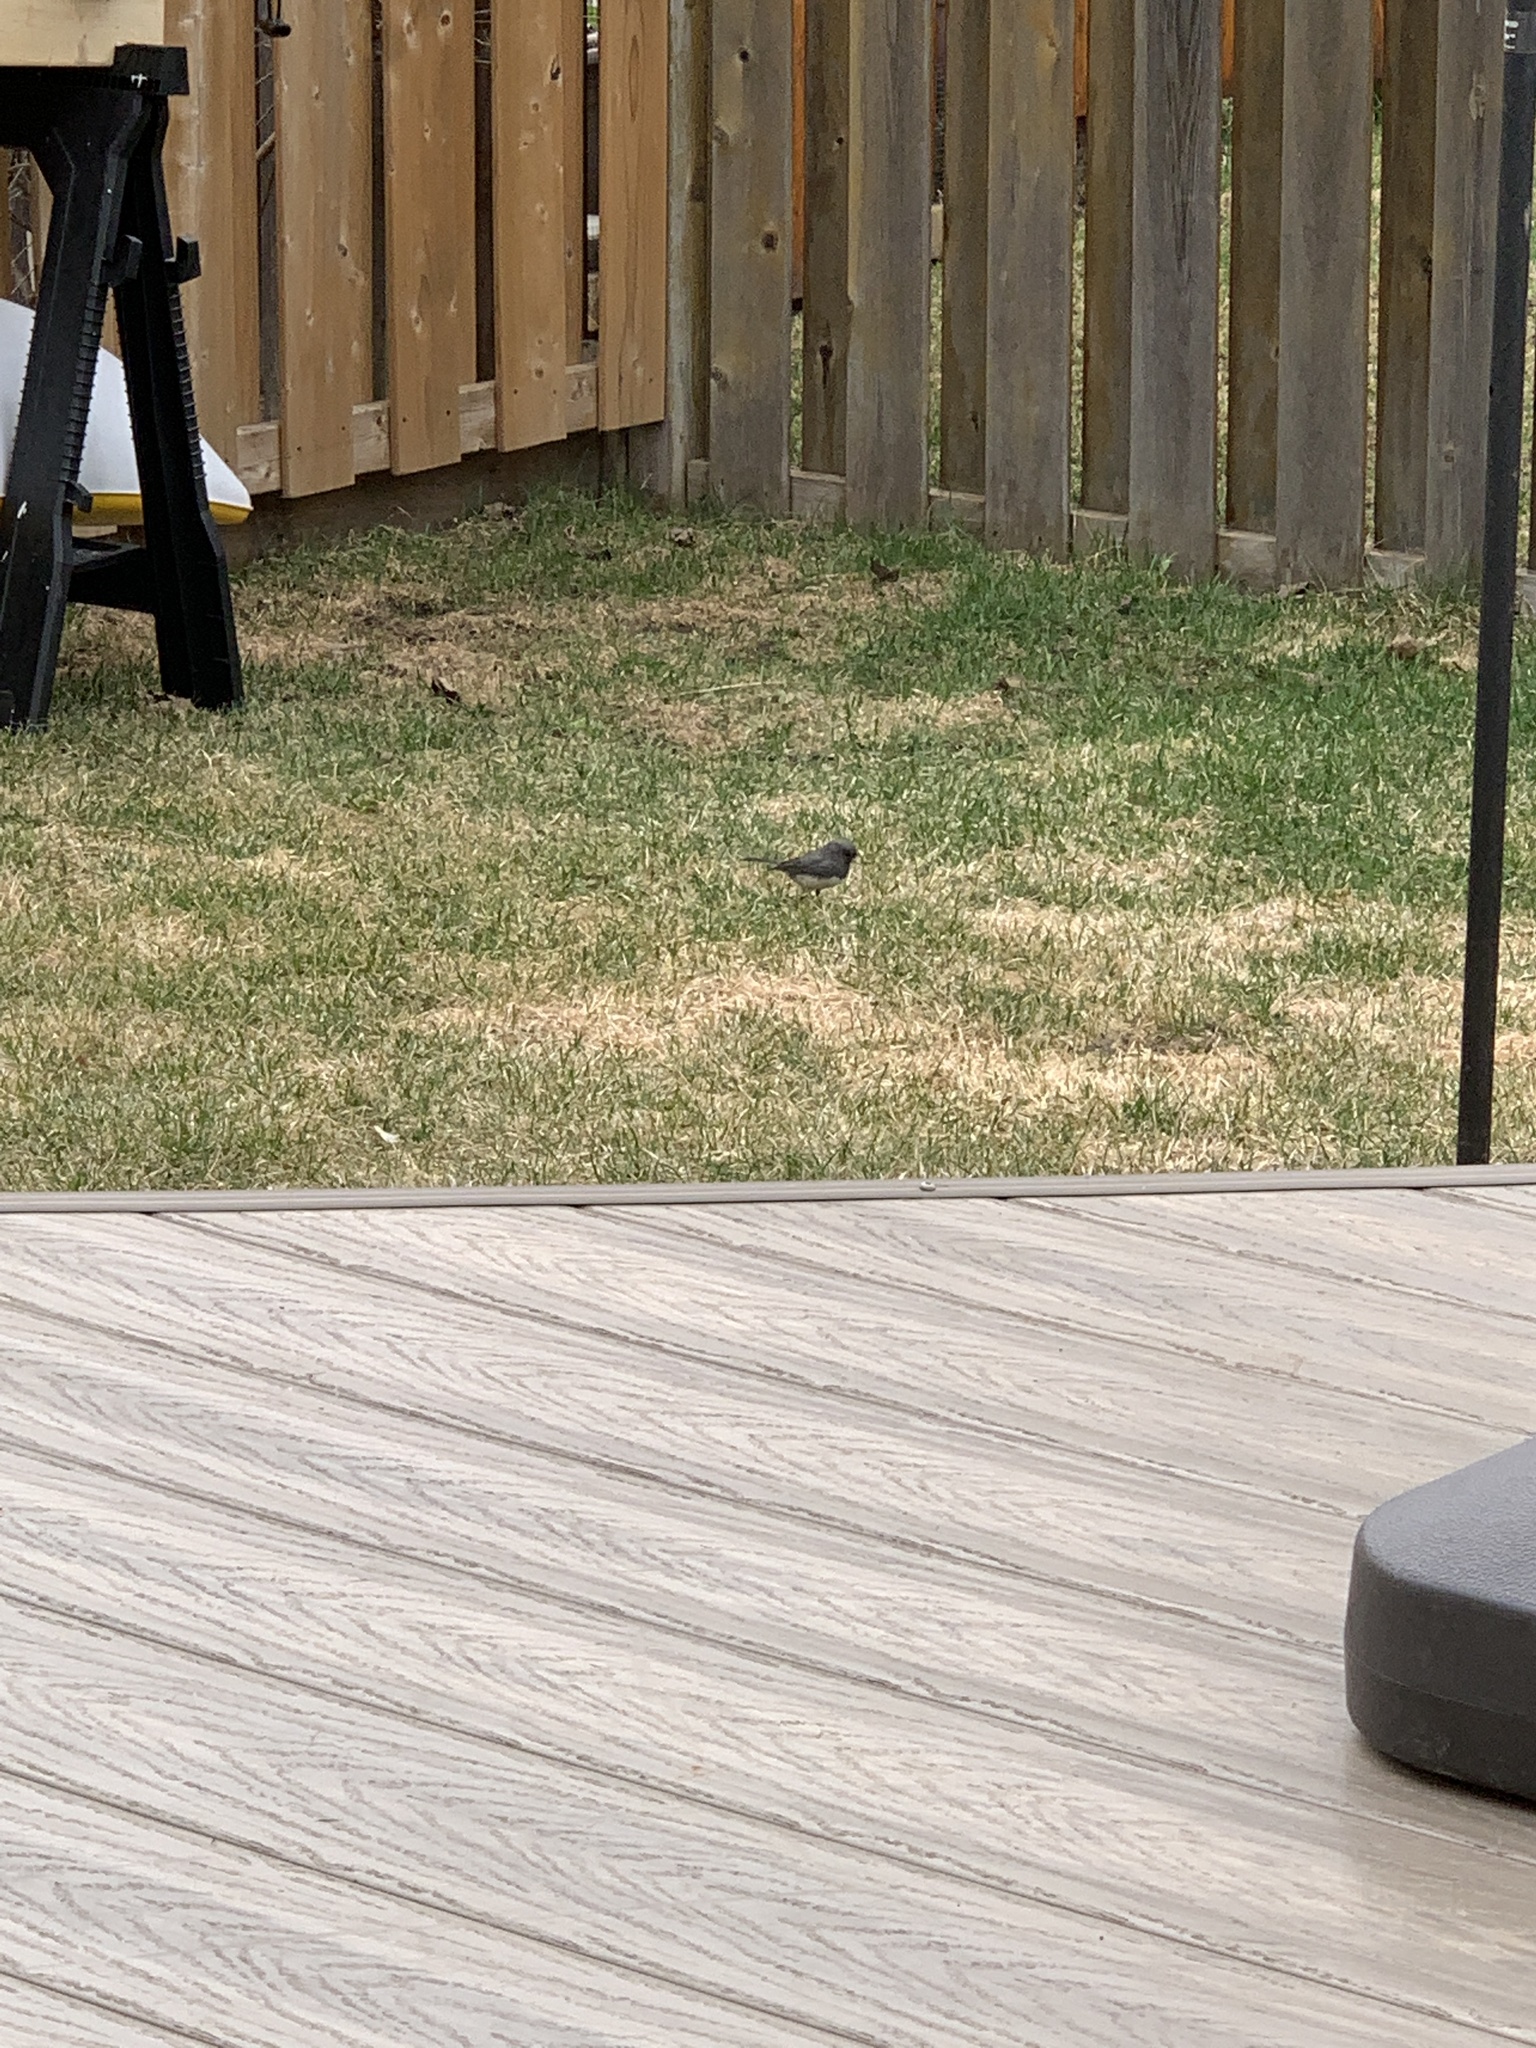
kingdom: Animalia
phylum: Chordata
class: Aves
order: Passeriformes
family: Passerellidae
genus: Junco
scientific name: Junco hyemalis
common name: Dark-eyed junco
